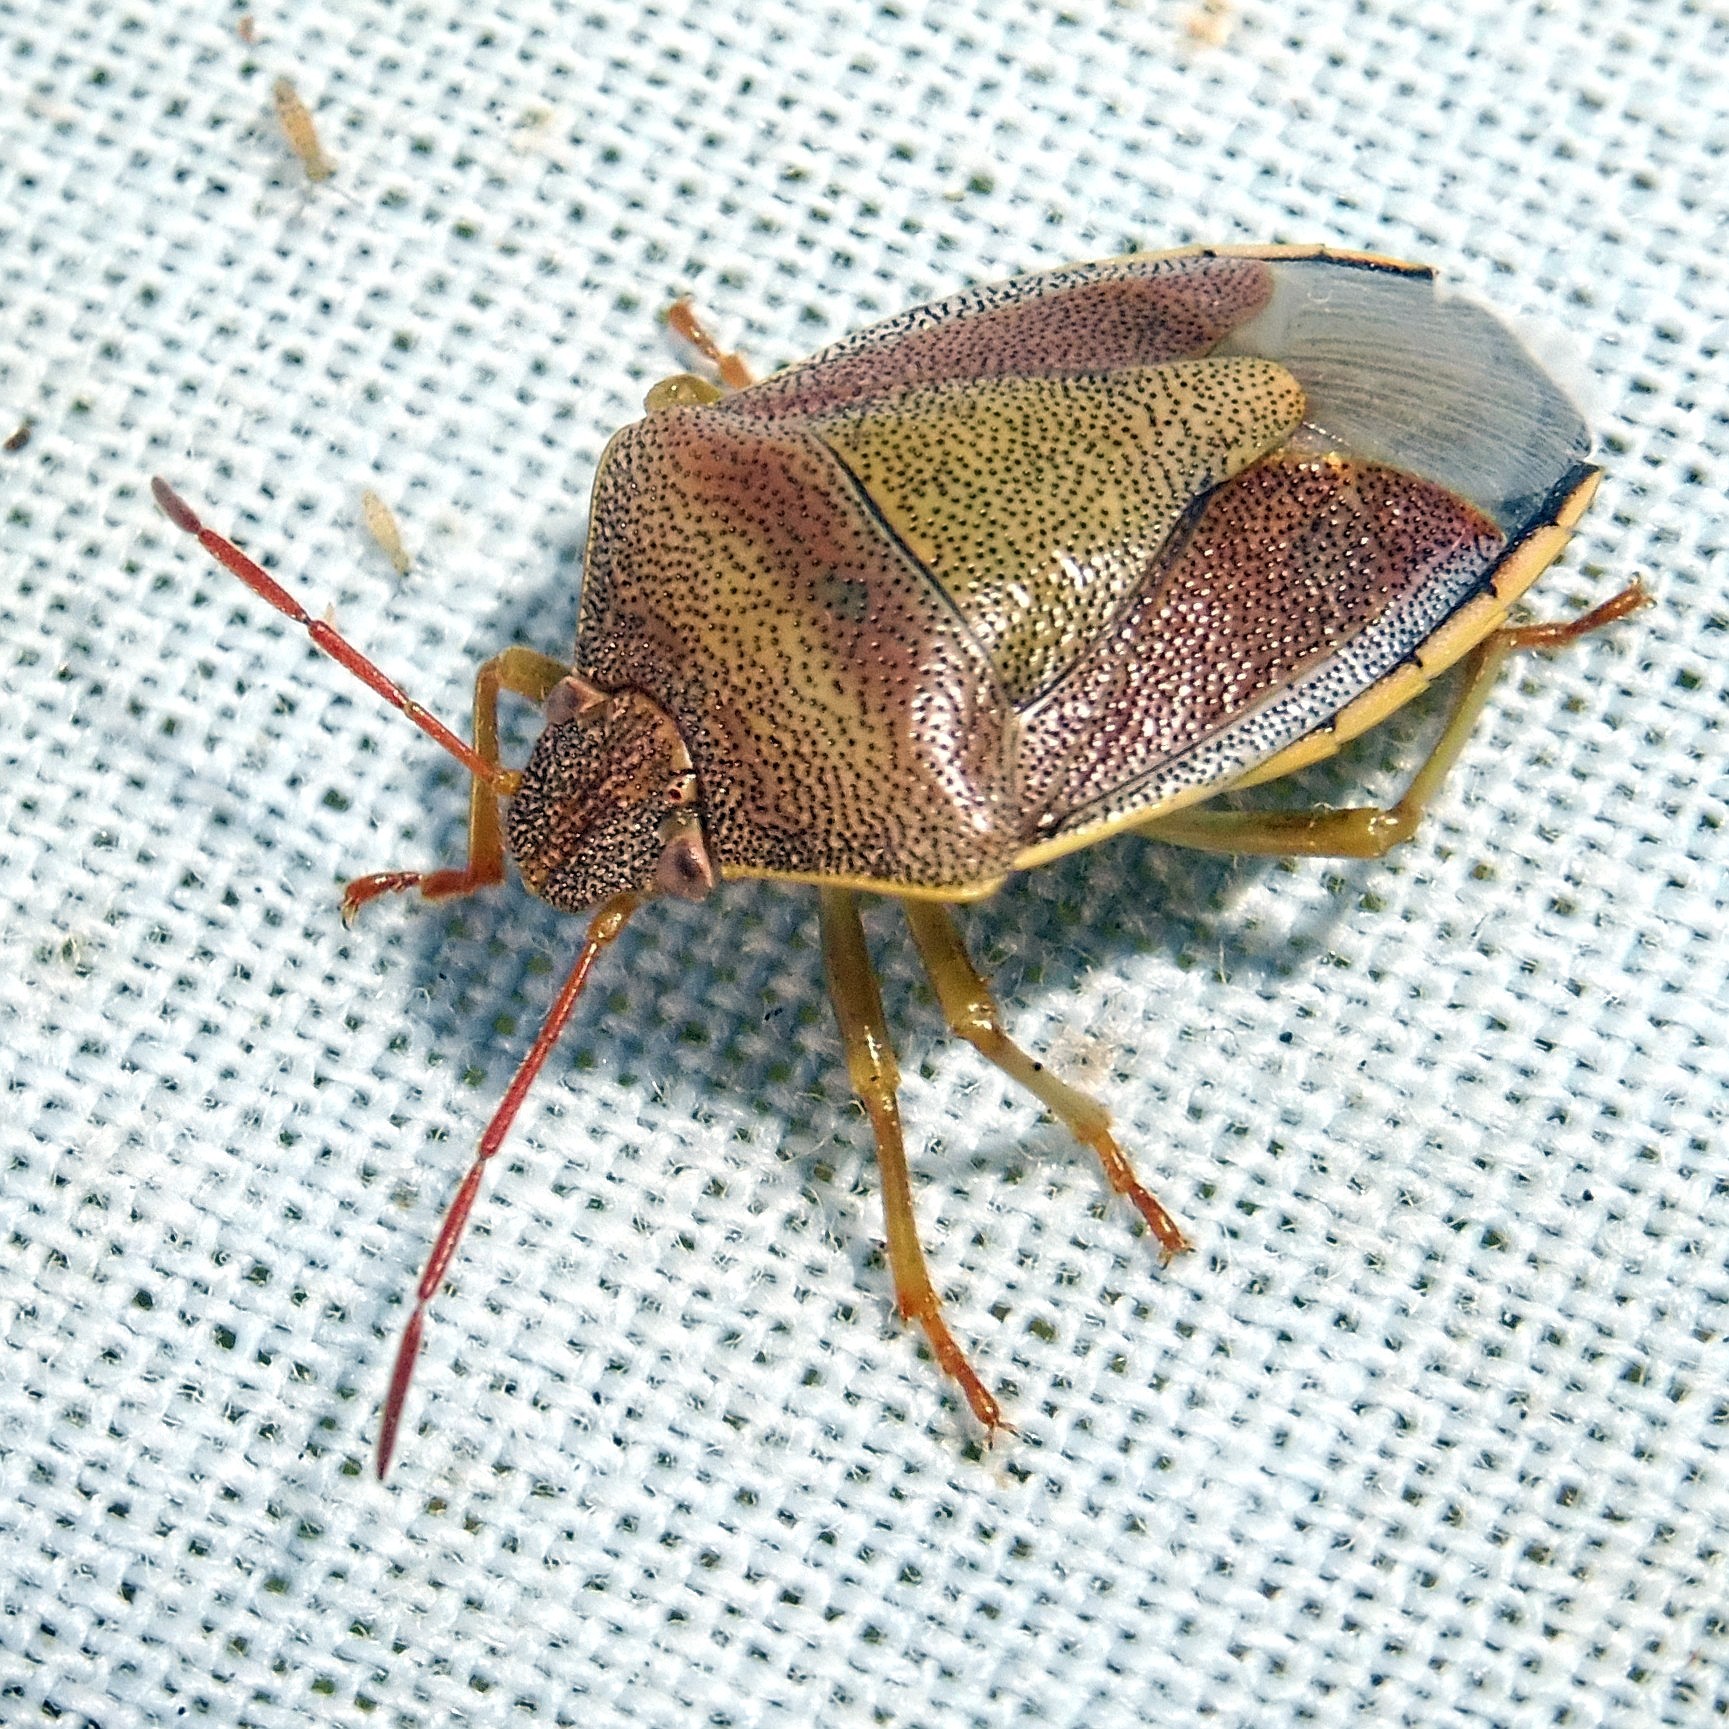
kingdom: Animalia
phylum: Arthropoda
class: Insecta
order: Hemiptera
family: Pentatomidae
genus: Piezodorus
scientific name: Piezodorus lituratus
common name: Stink bug
